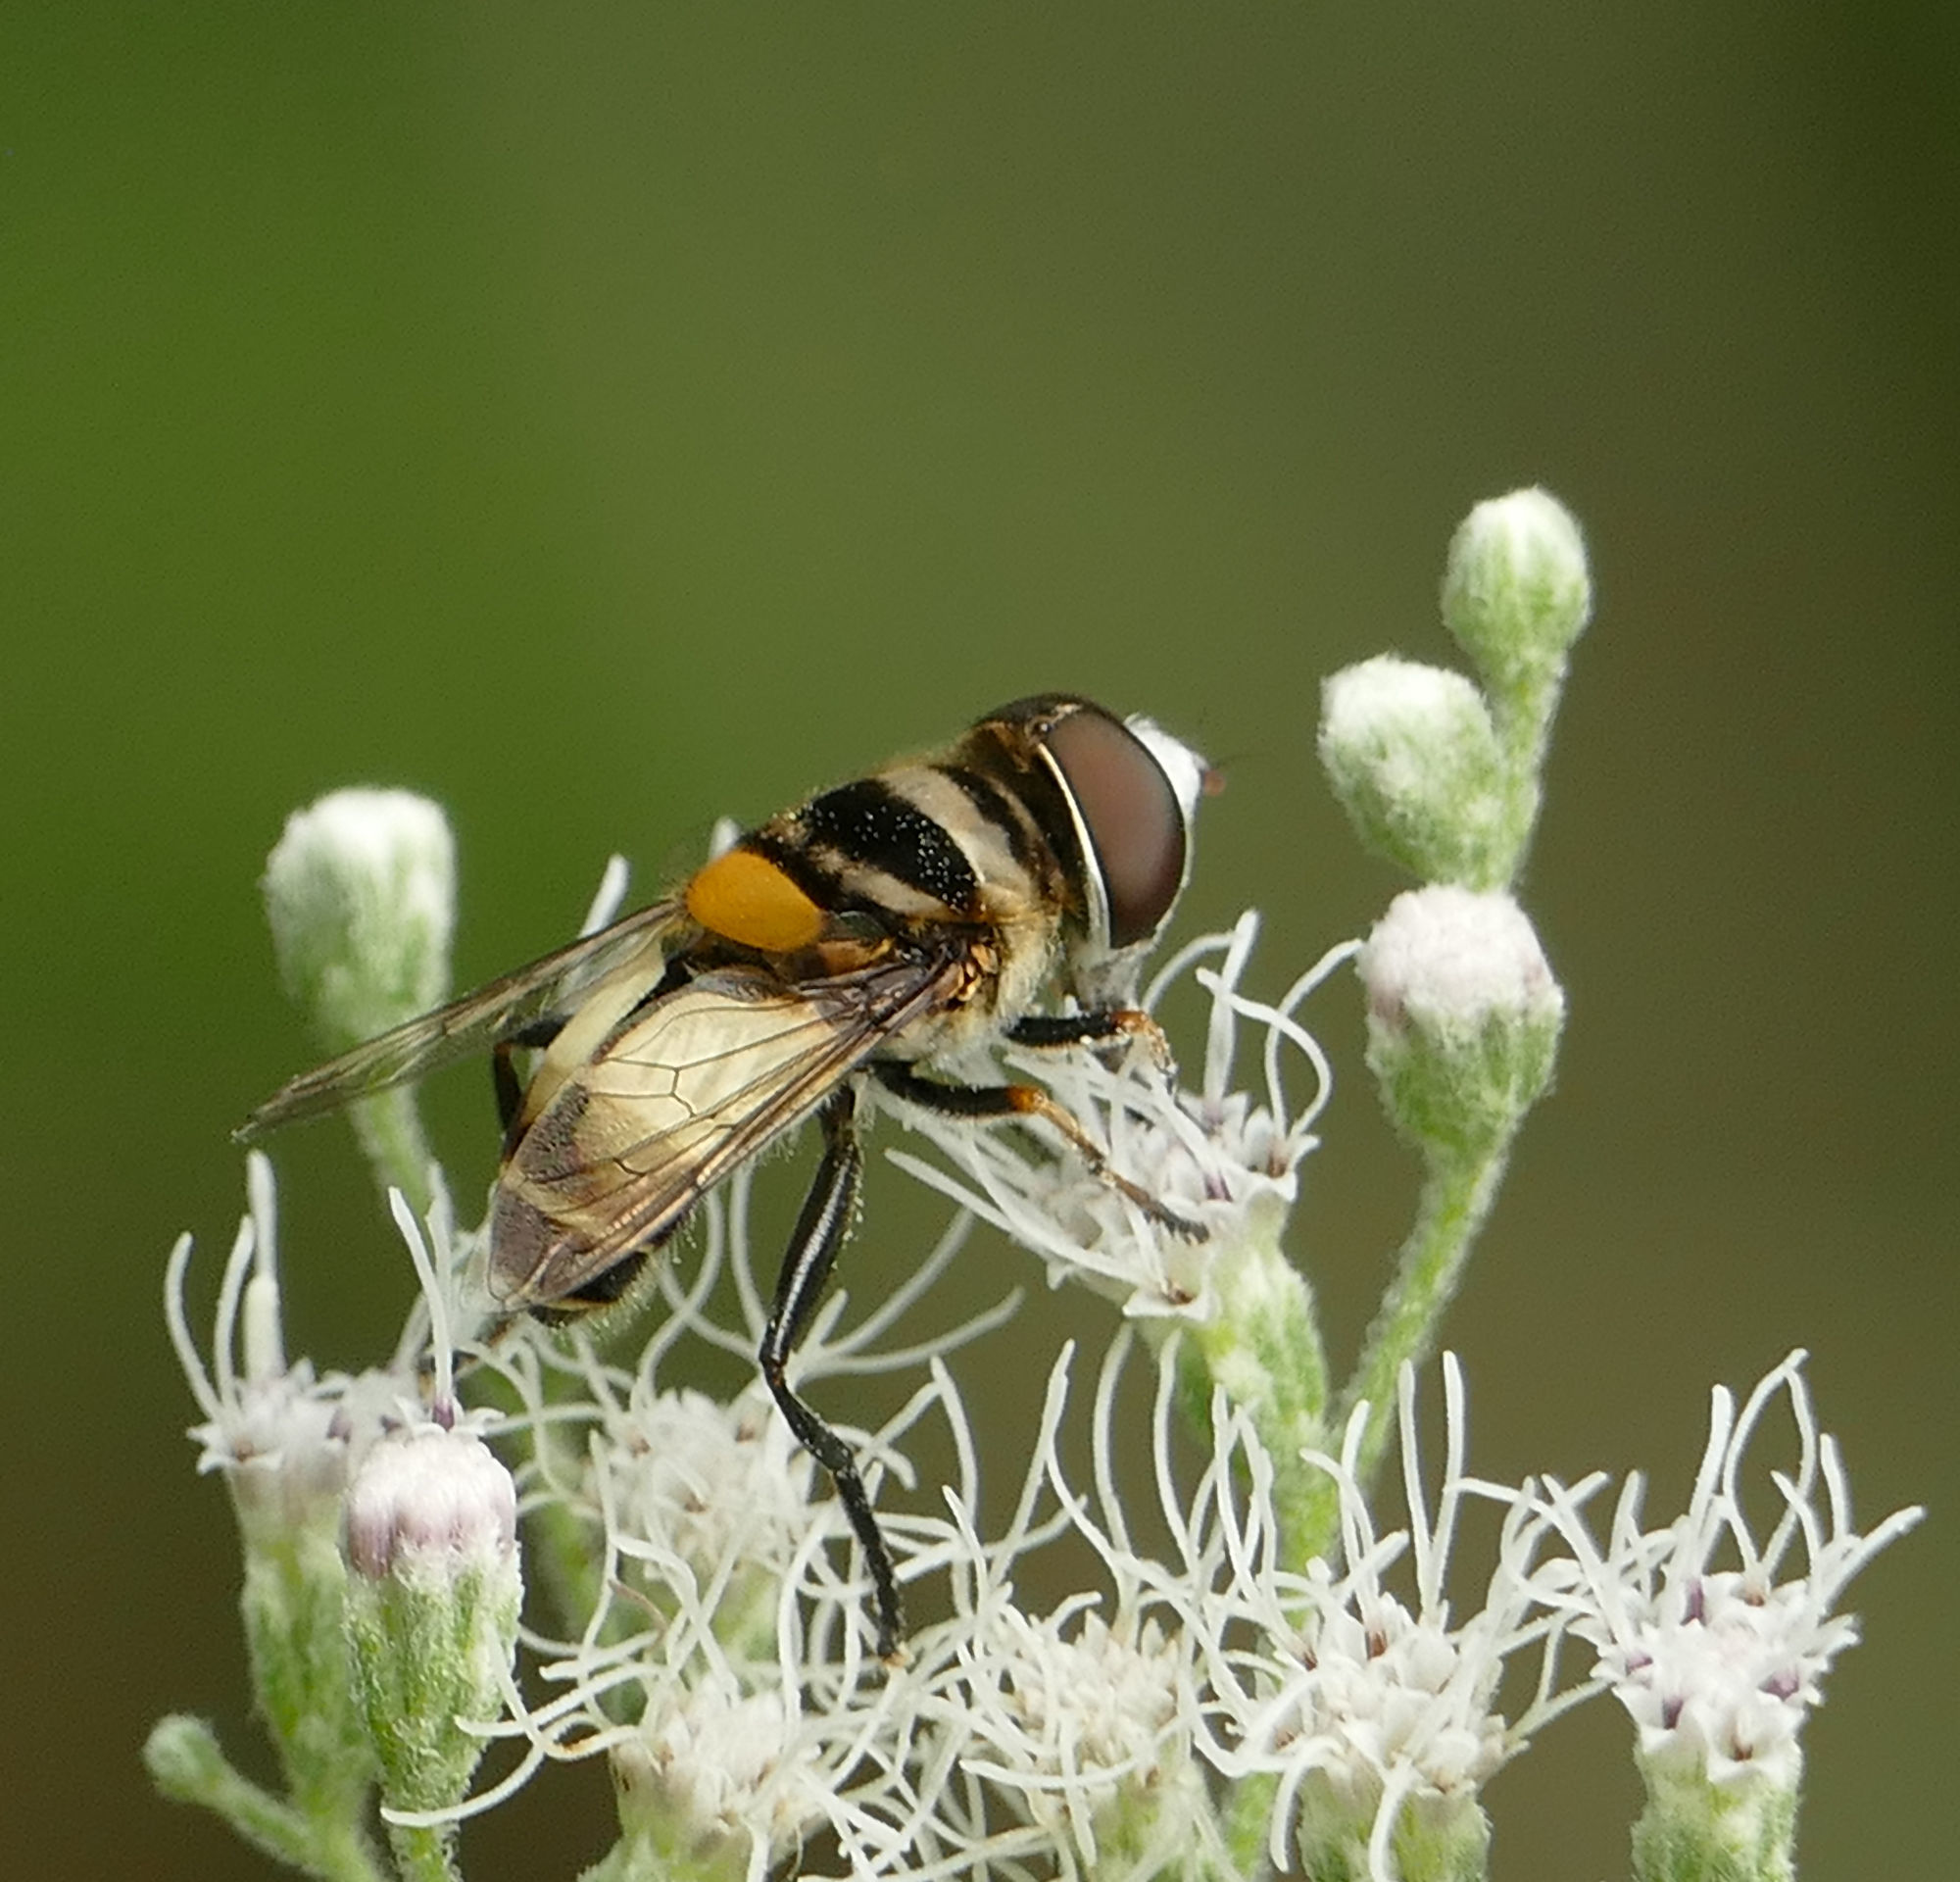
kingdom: Animalia
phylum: Arthropoda
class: Insecta
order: Diptera
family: Syrphidae
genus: Palpada
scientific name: Palpada albifrons
